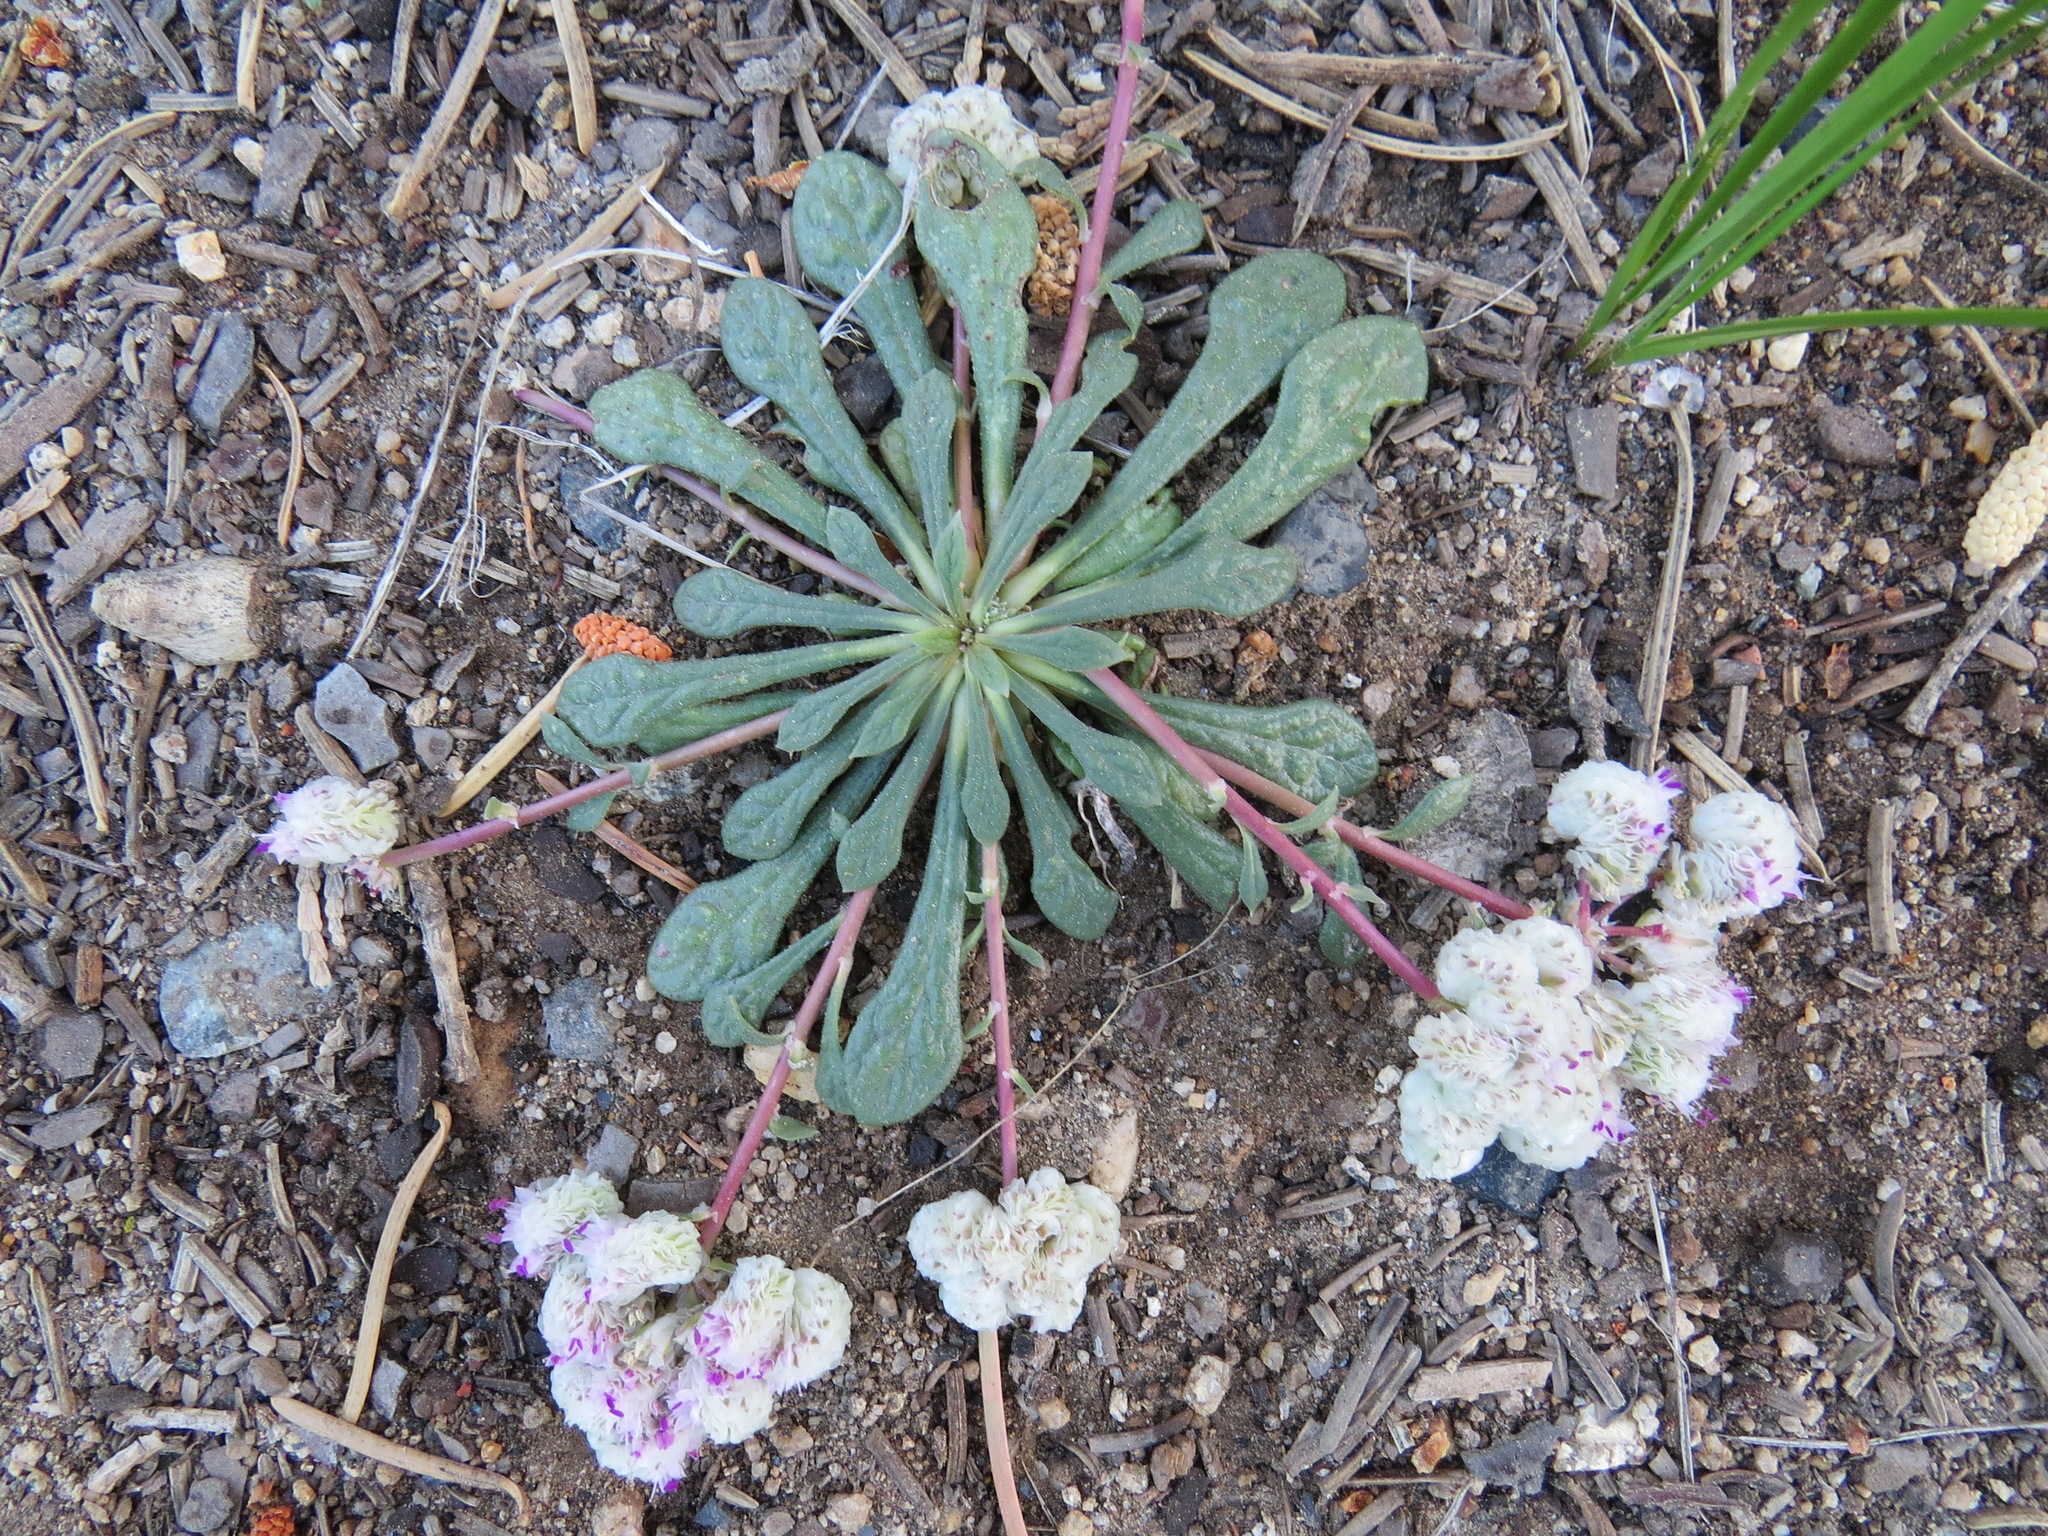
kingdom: Plantae
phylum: Tracheophyta
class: Magnoliopsida
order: Caryophyllales
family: Montiaceae
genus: Calyptridium
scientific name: Calyptridium monospermum
